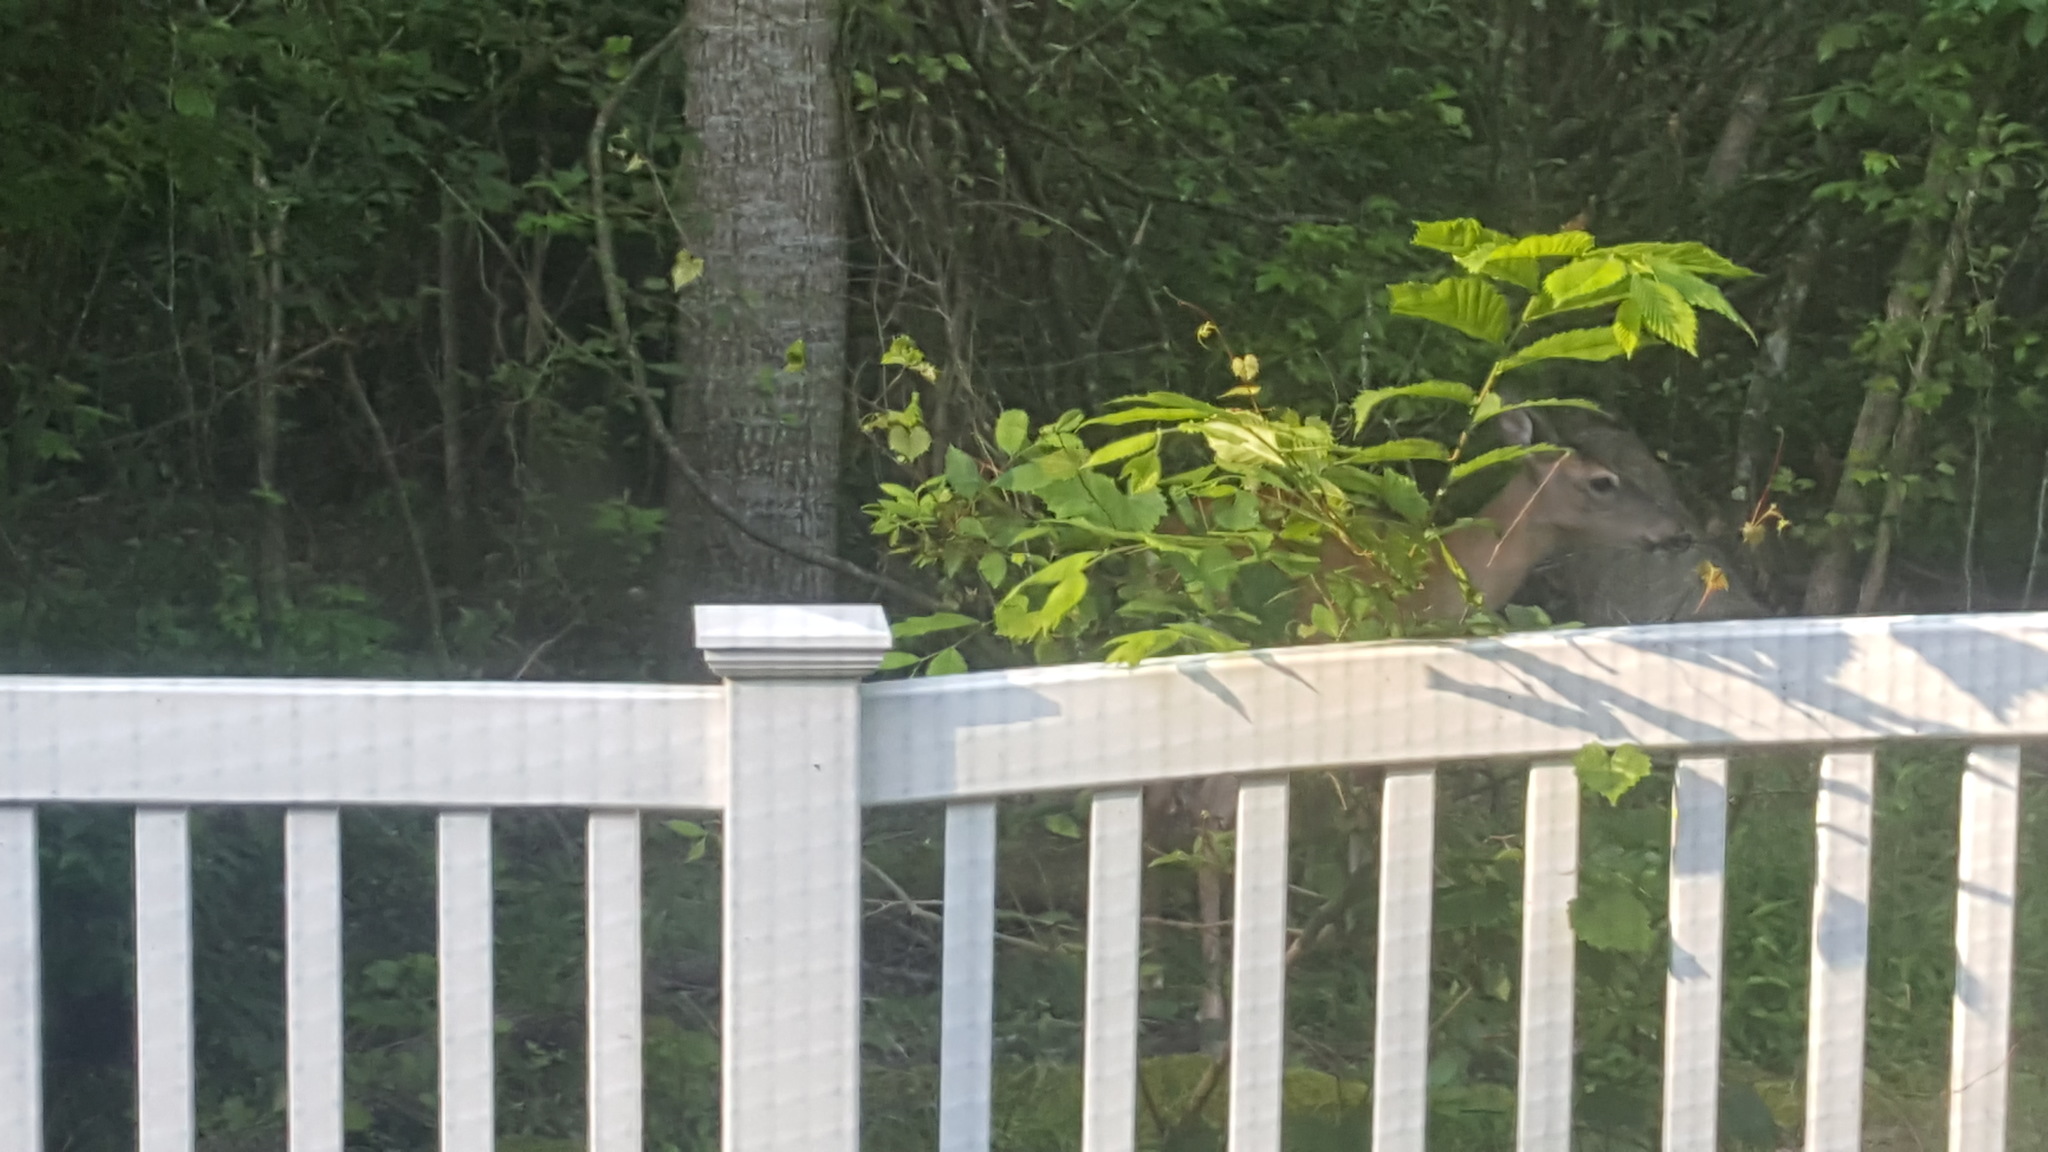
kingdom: Animalia
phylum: Chordata
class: Mammalia
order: Artiodactyla
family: Cervidae
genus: Odocoileus
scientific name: Odocoileus virginianus
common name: White-tailed deer
